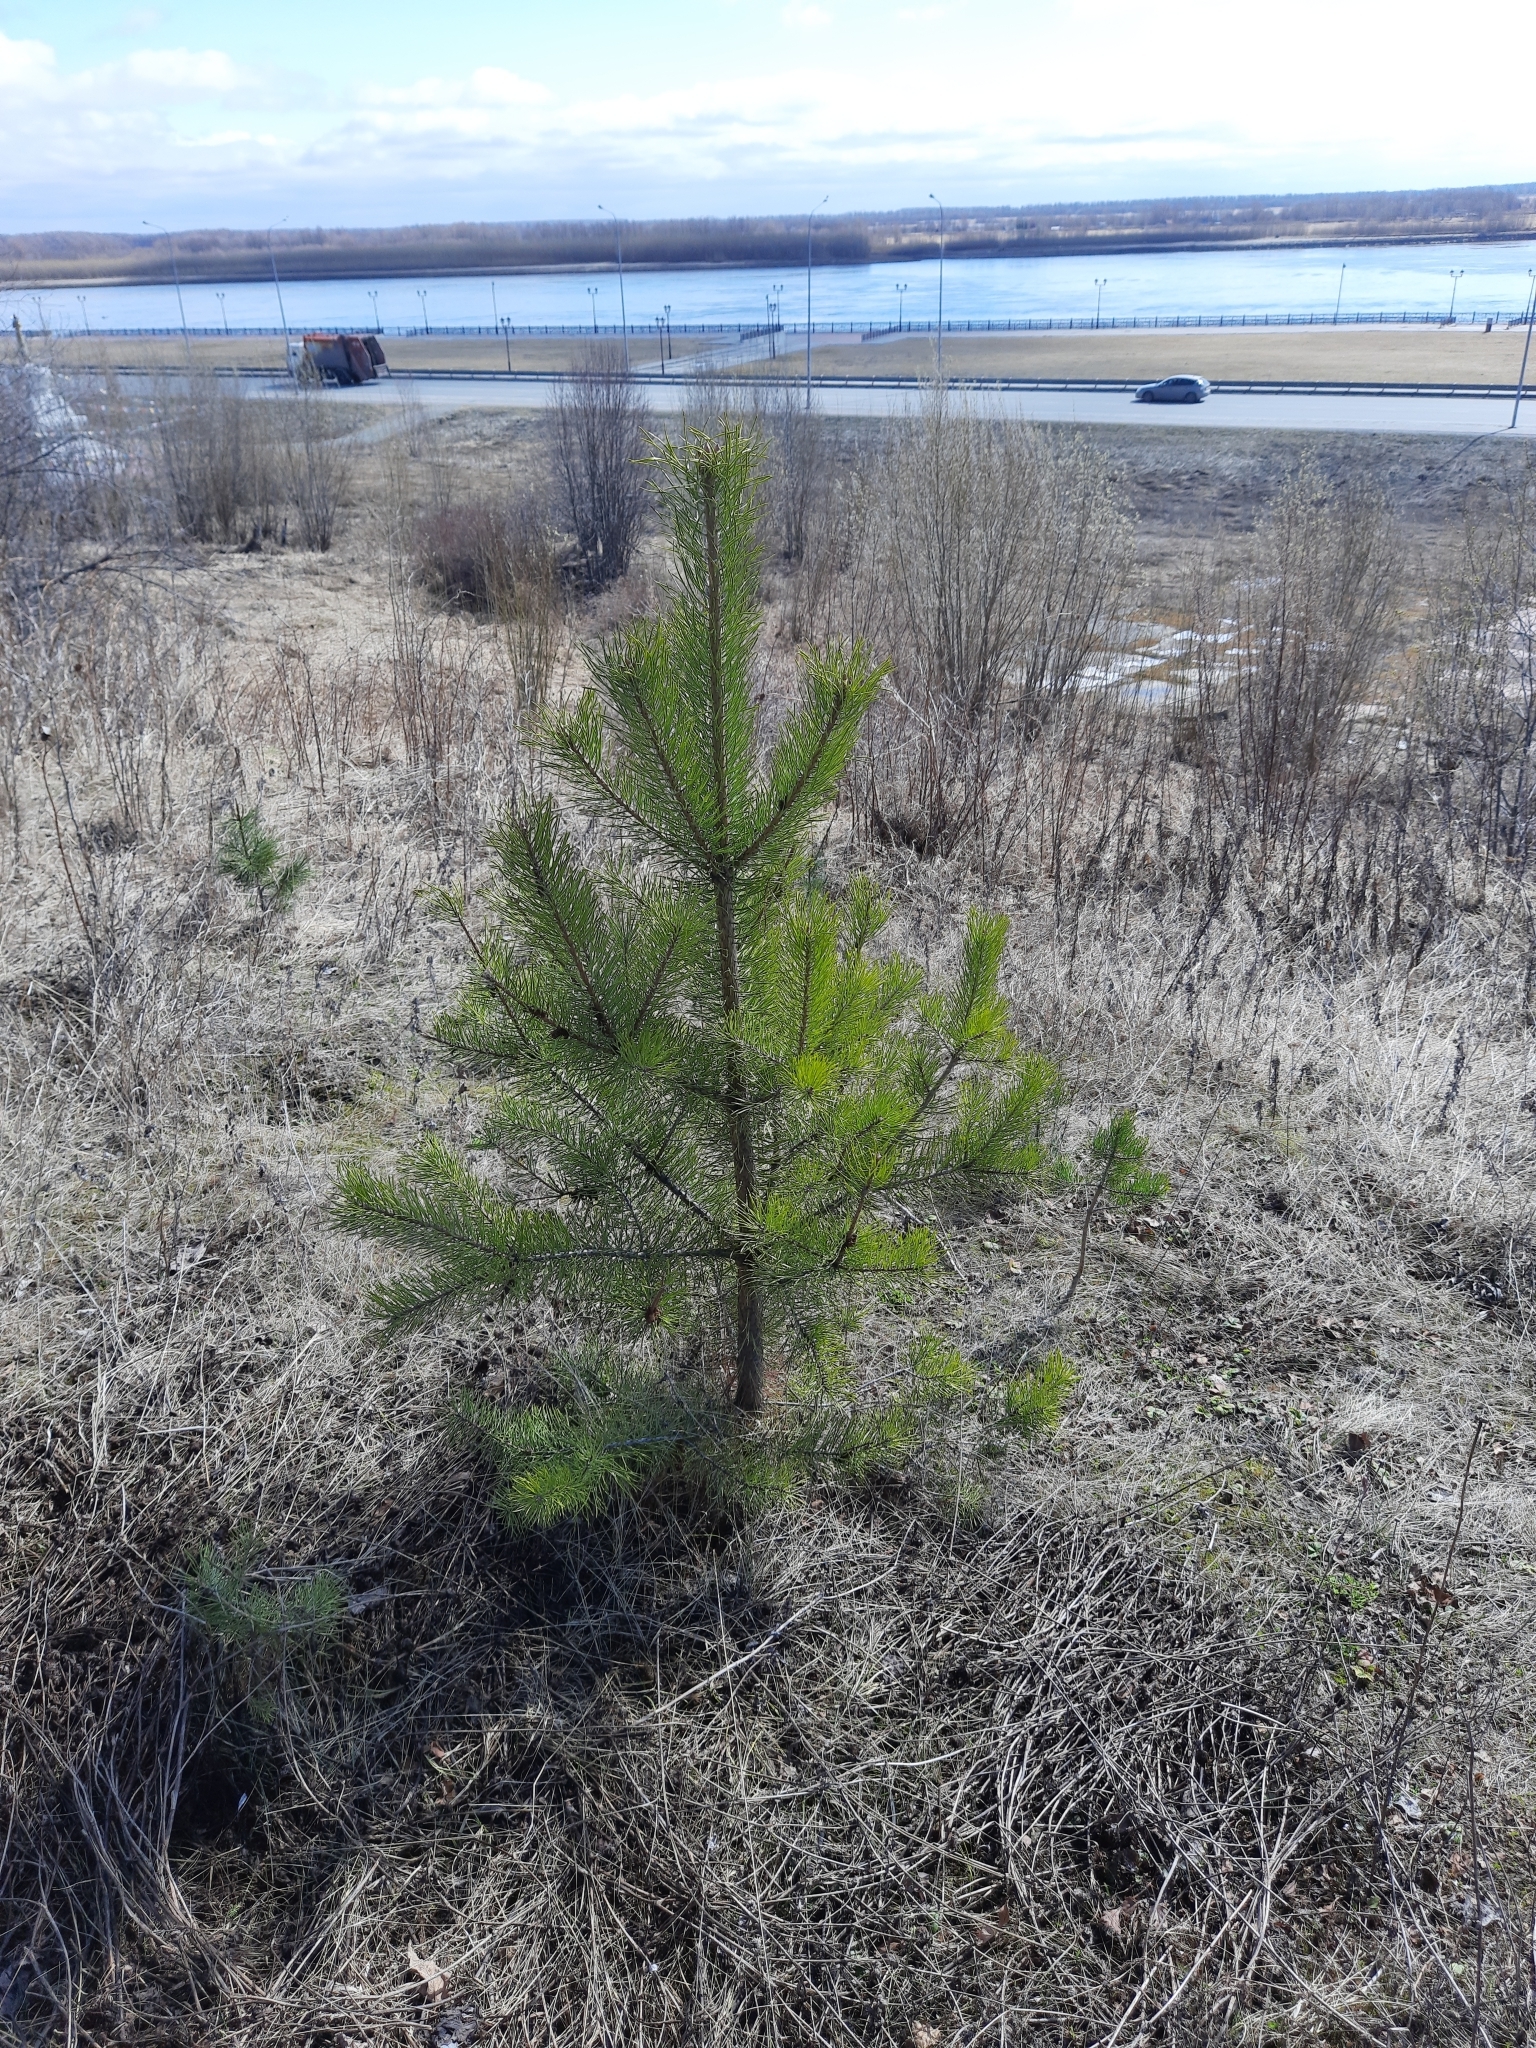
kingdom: Plantae
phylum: Tracheophyta
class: Pinopsida
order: Pinales
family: Pinaceae
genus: Pinus
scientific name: Pinus sylvestris
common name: Scots pine
